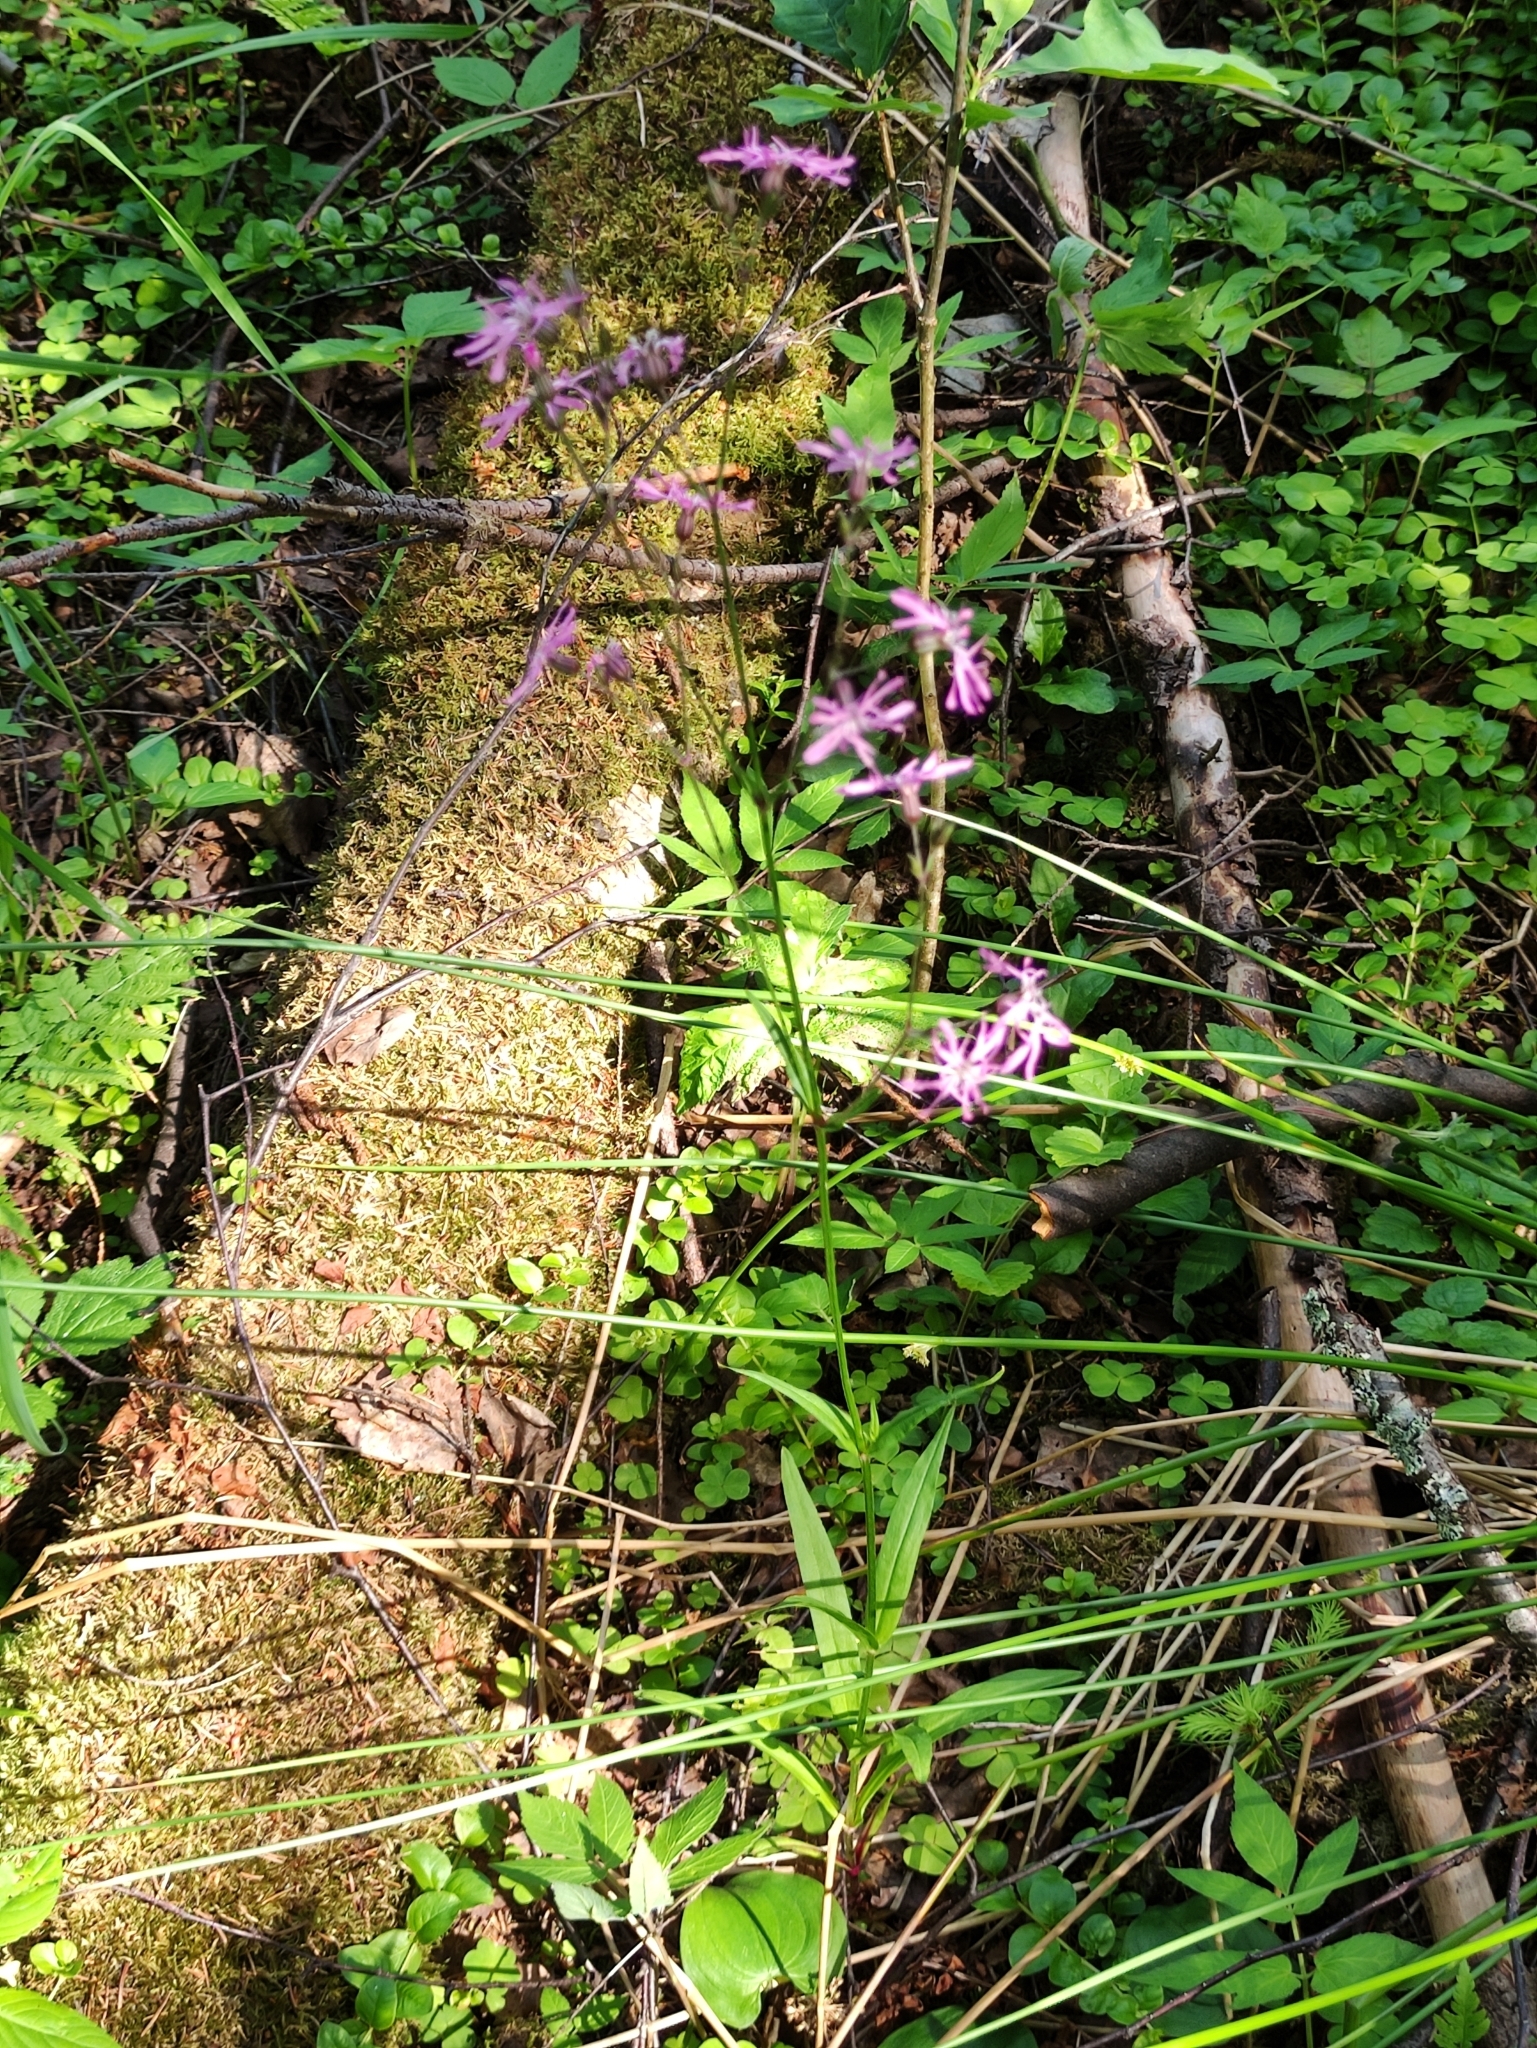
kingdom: Plantae
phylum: Tracheophyta
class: Magnoliopsida
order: Caryophyllales
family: Caryophyllaceae
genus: Silene
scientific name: Silene flos-cuculi
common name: Ragged-robin
